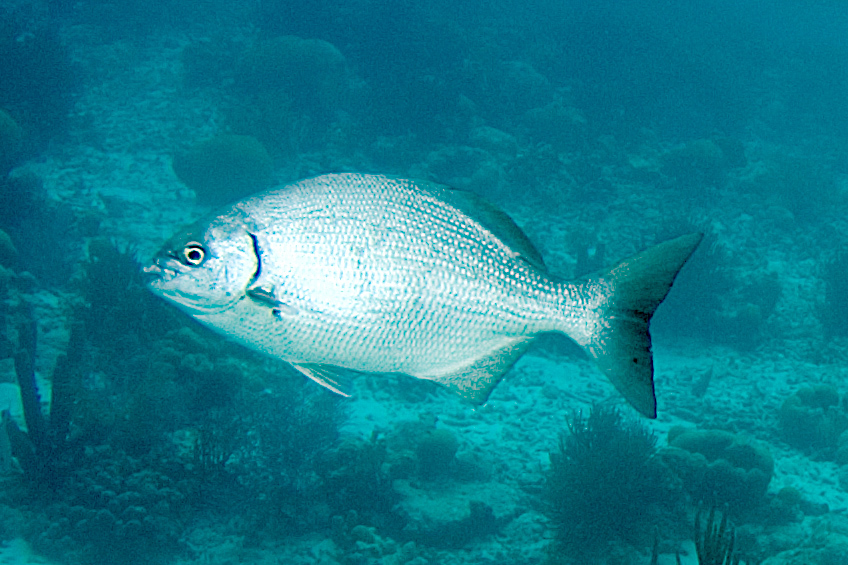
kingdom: Animalia
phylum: Chordata
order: Perciformes
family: Kyphosidae
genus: Kyphosus
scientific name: Kyphosus sectatrix
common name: Bermuda chub
